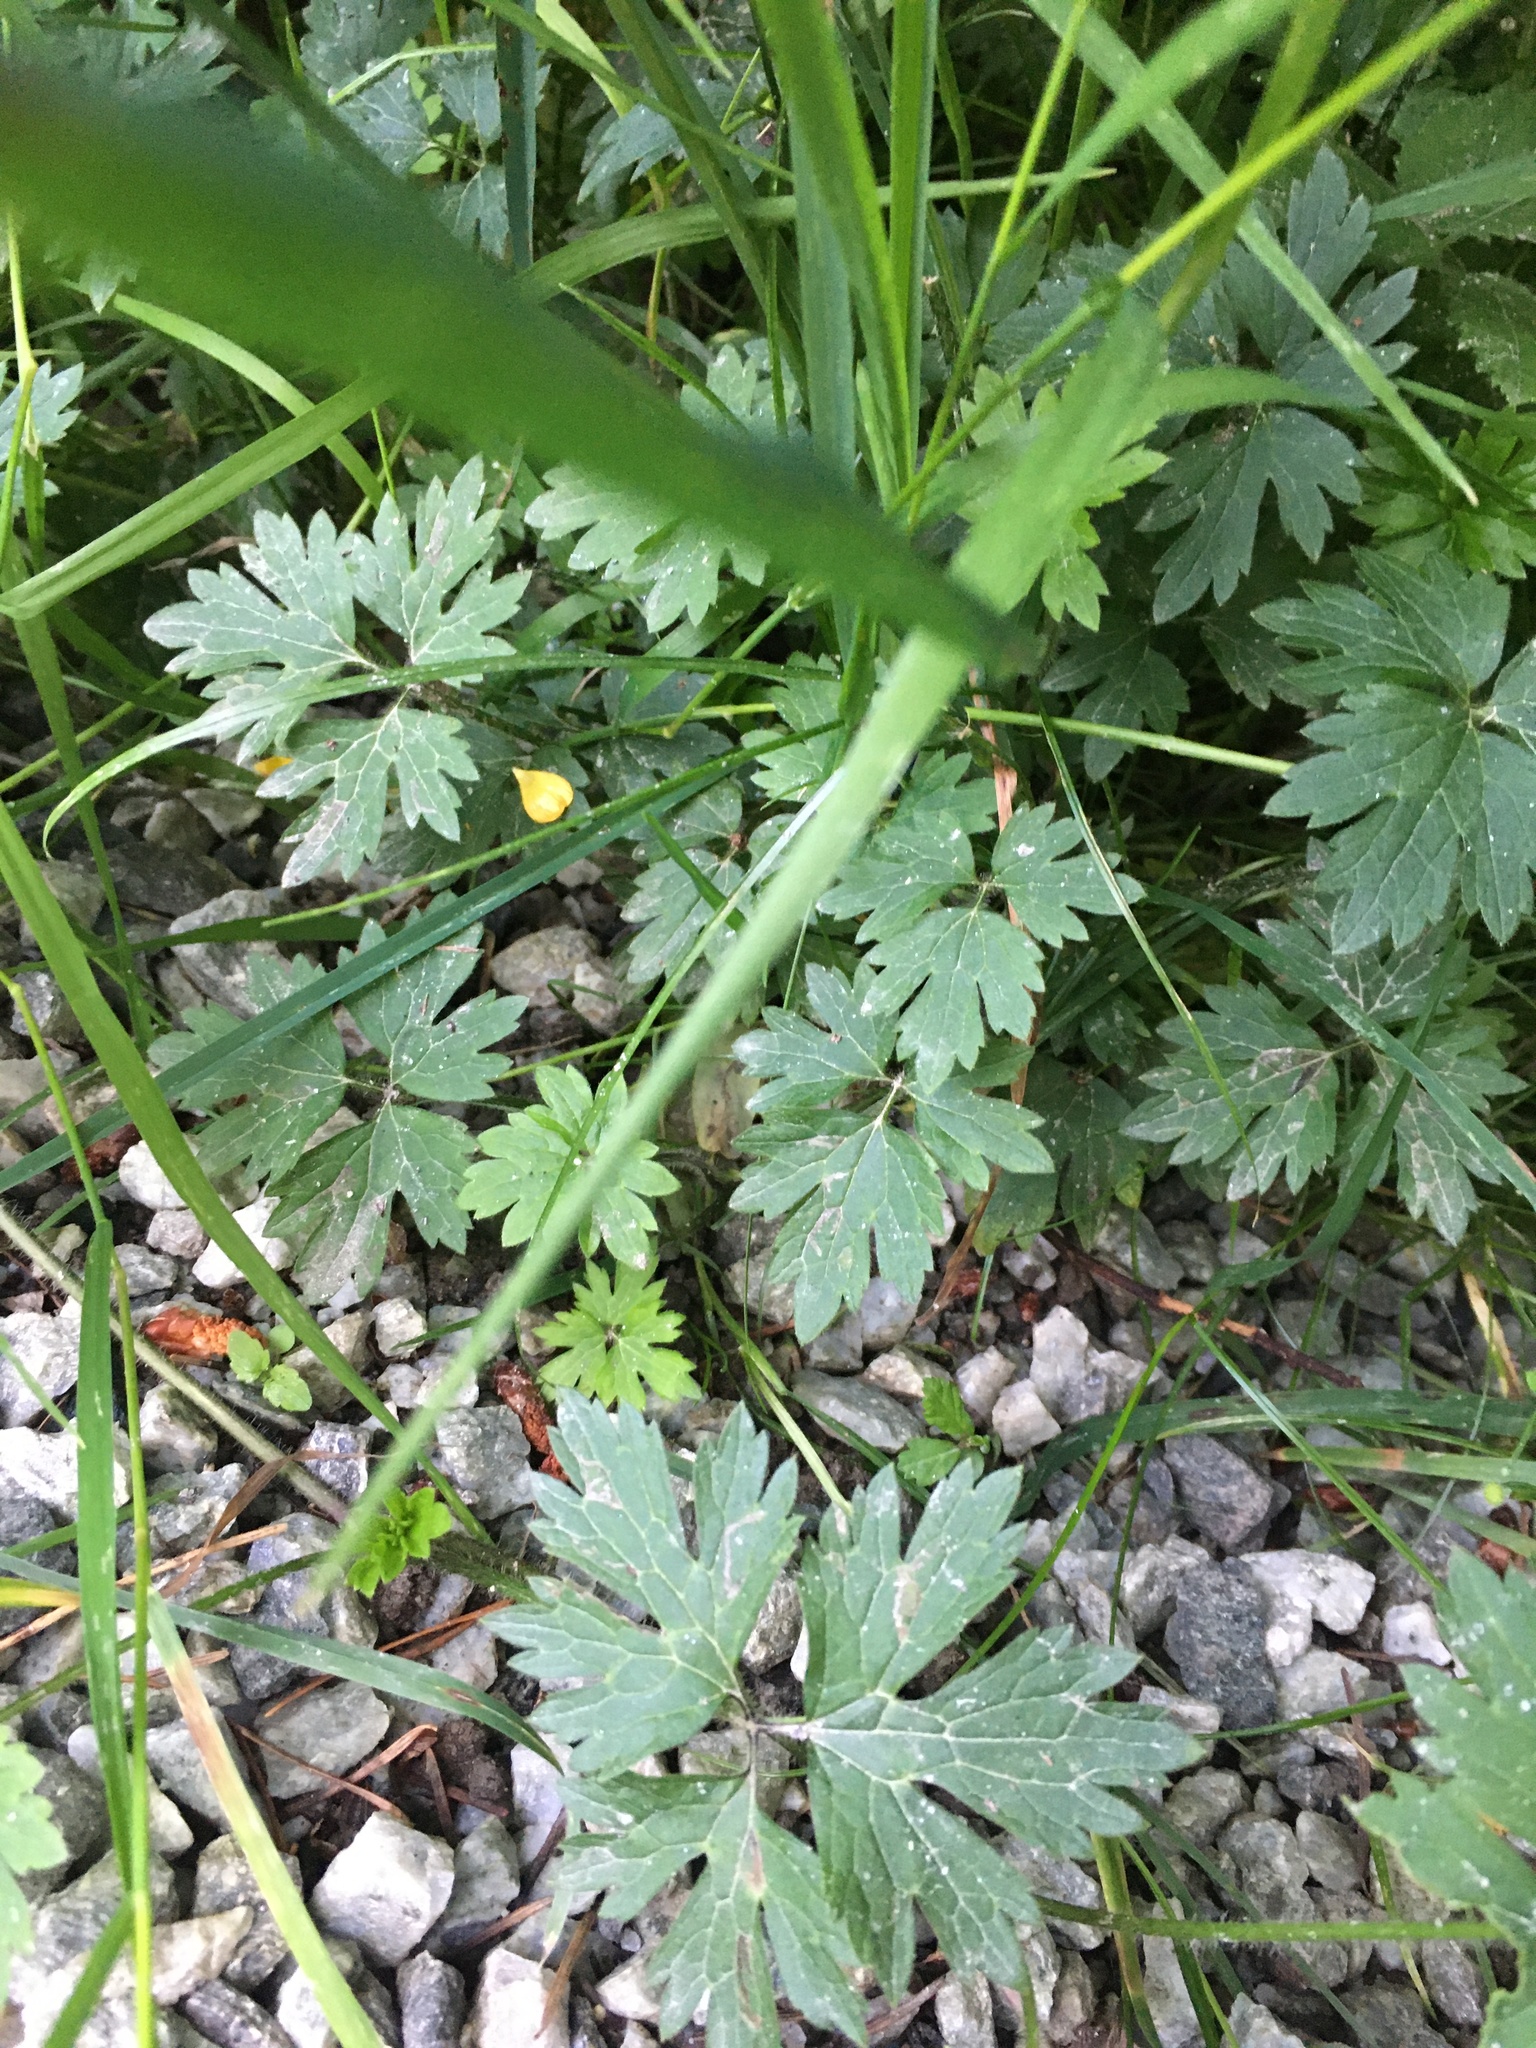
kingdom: Plantae
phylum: Tracheophyta
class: Magnoliopsida
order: Ranunculales
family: Ranunculaceae
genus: Ranunculus
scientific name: Ranunculus repens
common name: Creeping buttercup
